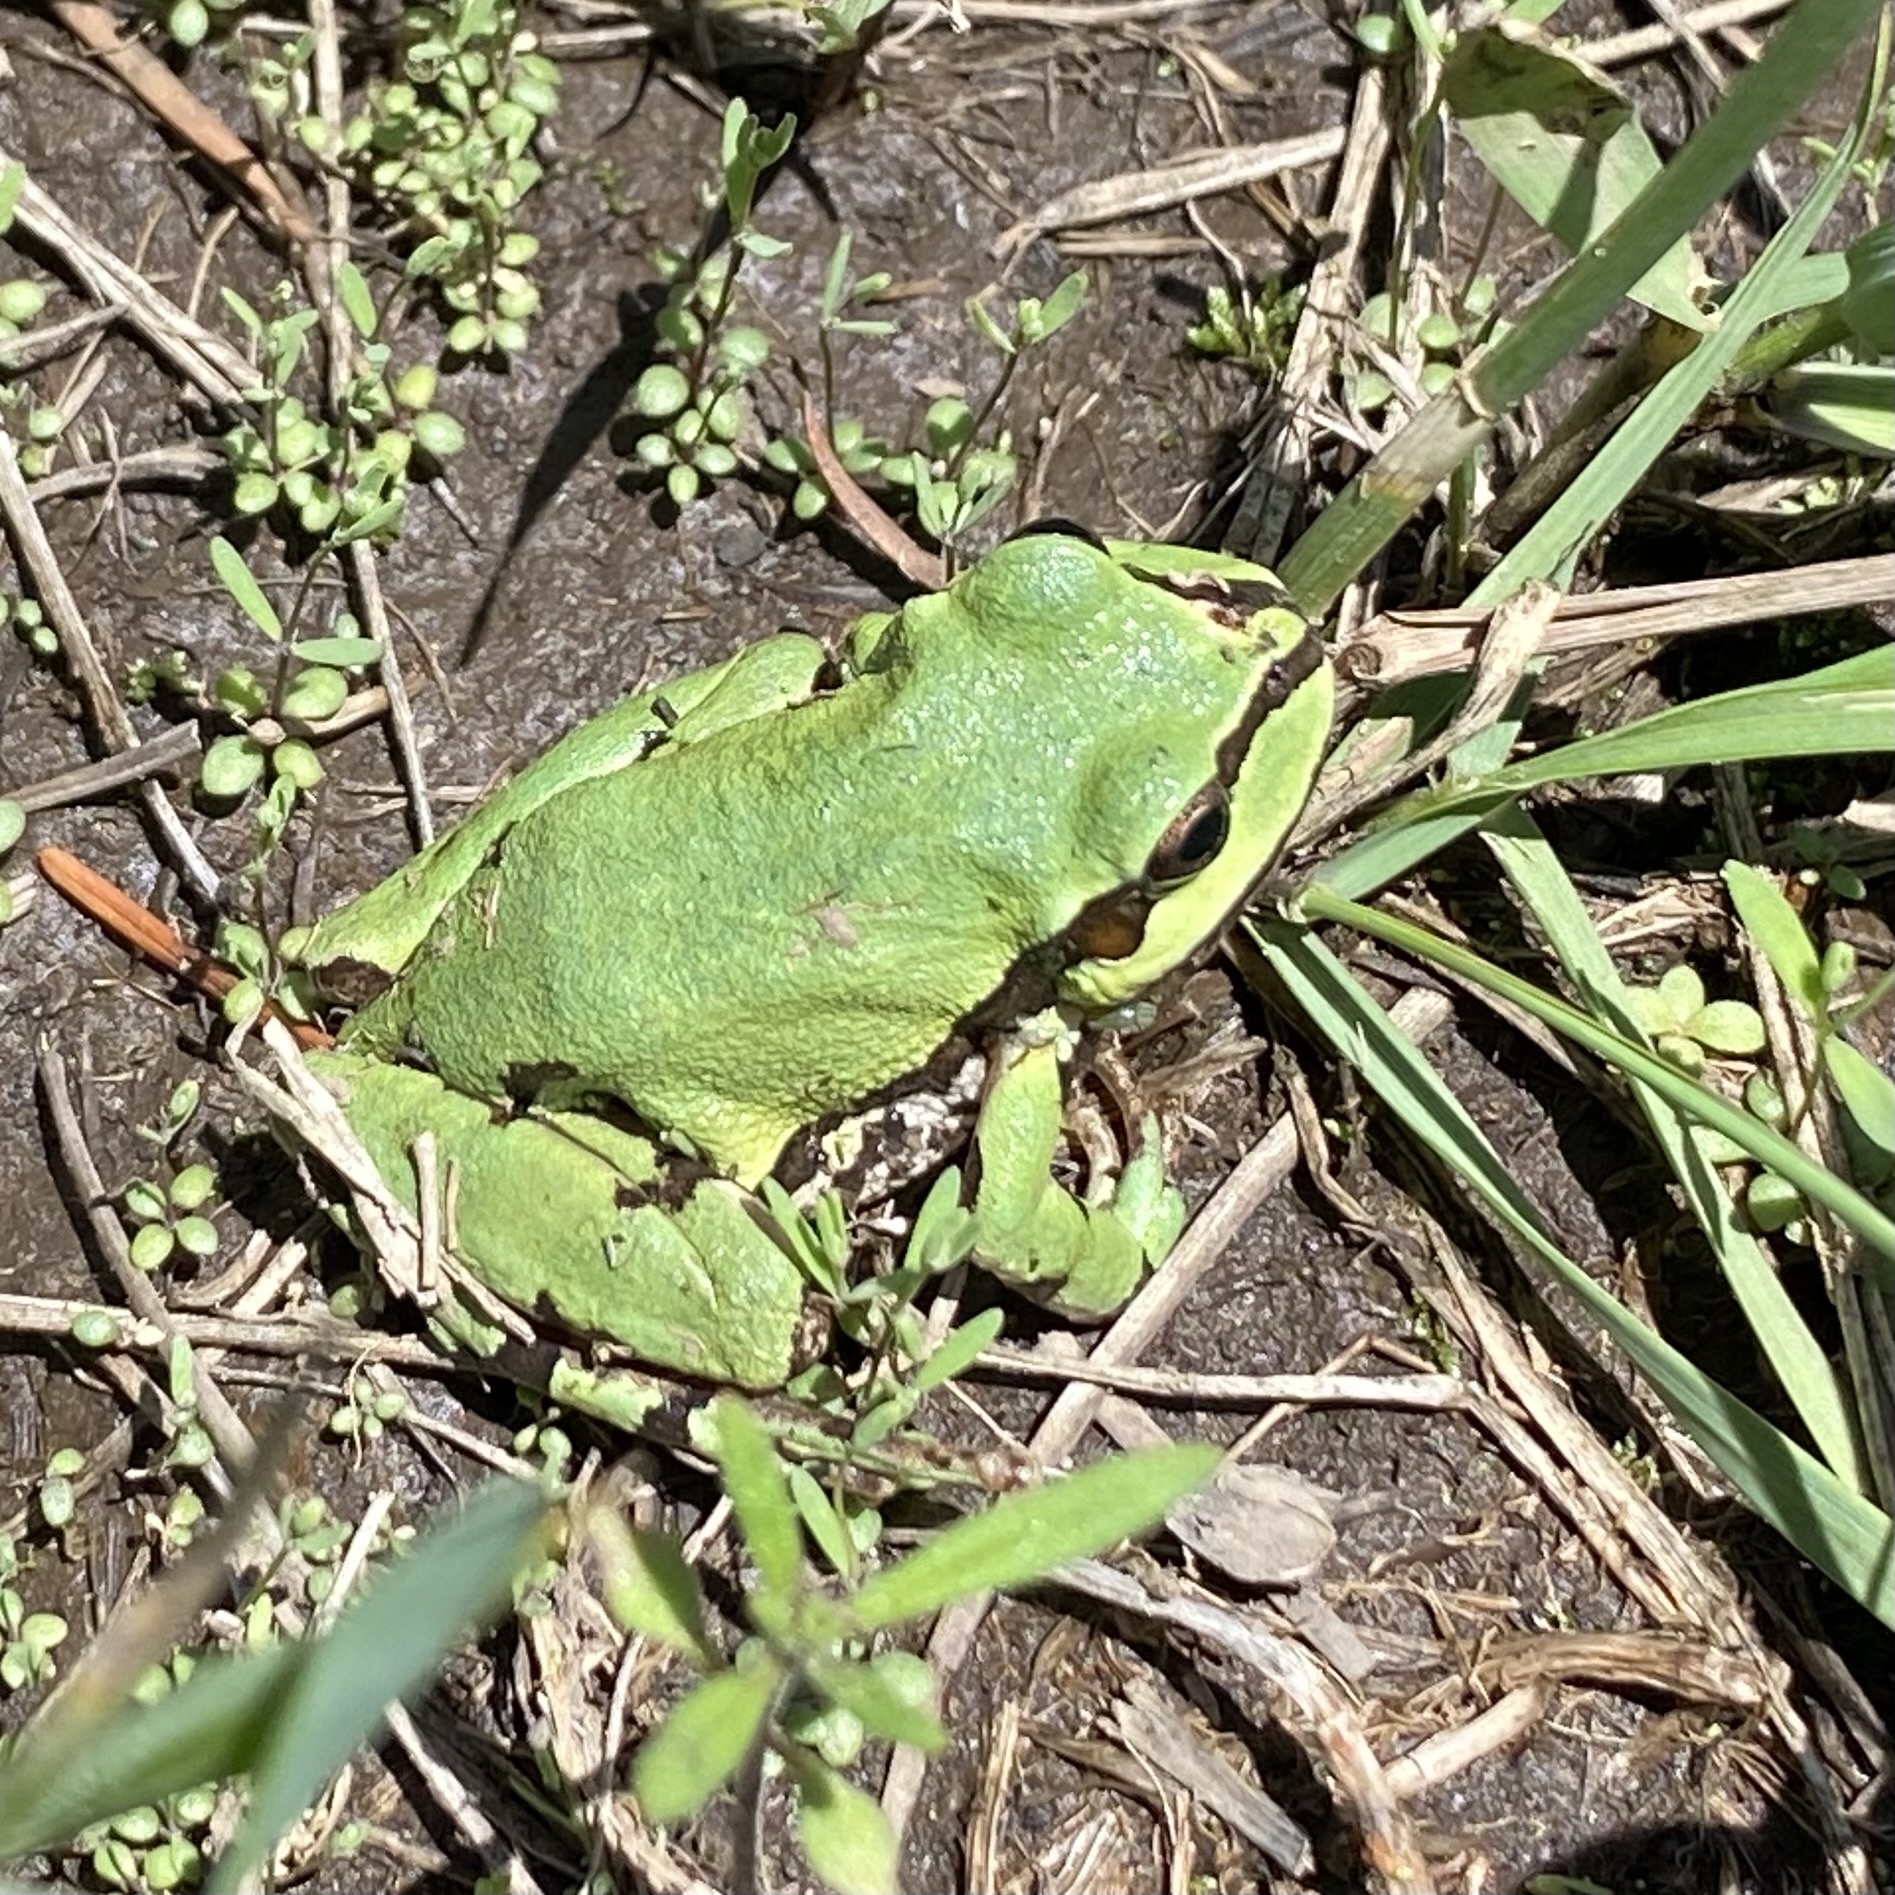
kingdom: Animalia
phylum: Chordata
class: Amphibia
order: Anura
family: Hylidae
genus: Dryophytes
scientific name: Dryophytes wrightorum
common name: Arizona treefrog
